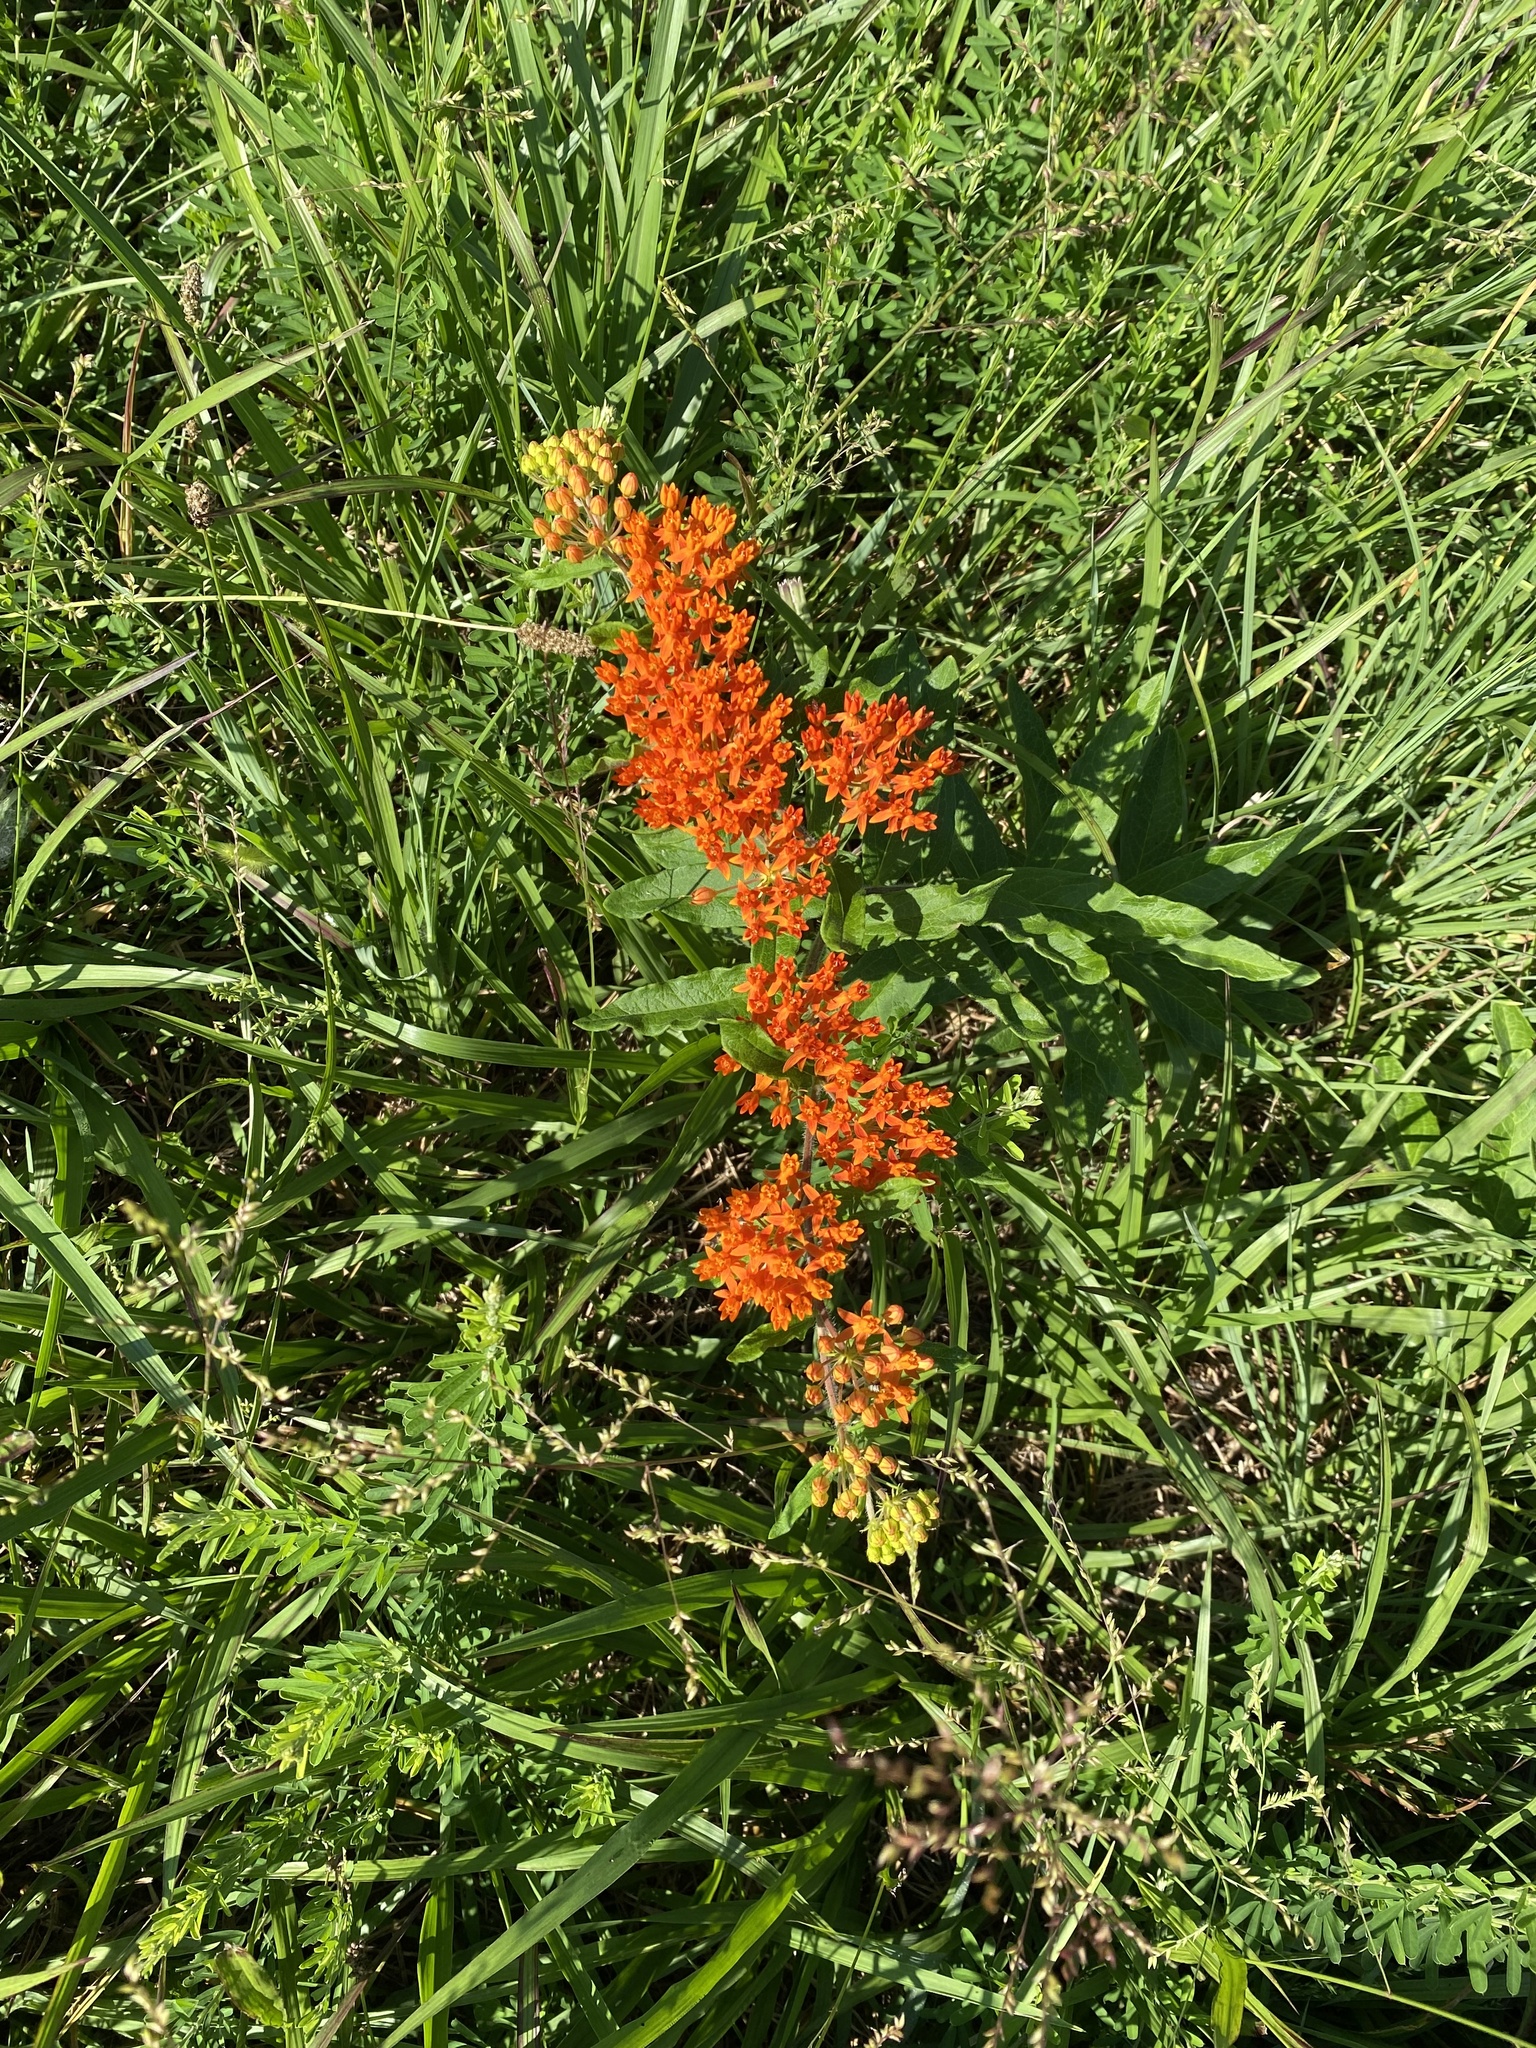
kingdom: Plantae
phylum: Tracheophyta
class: Magnoliopsida
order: Gentianales
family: Apocynaceae
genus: Asclepias
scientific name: Asclepias tuberosa
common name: Butterfly milkweed
